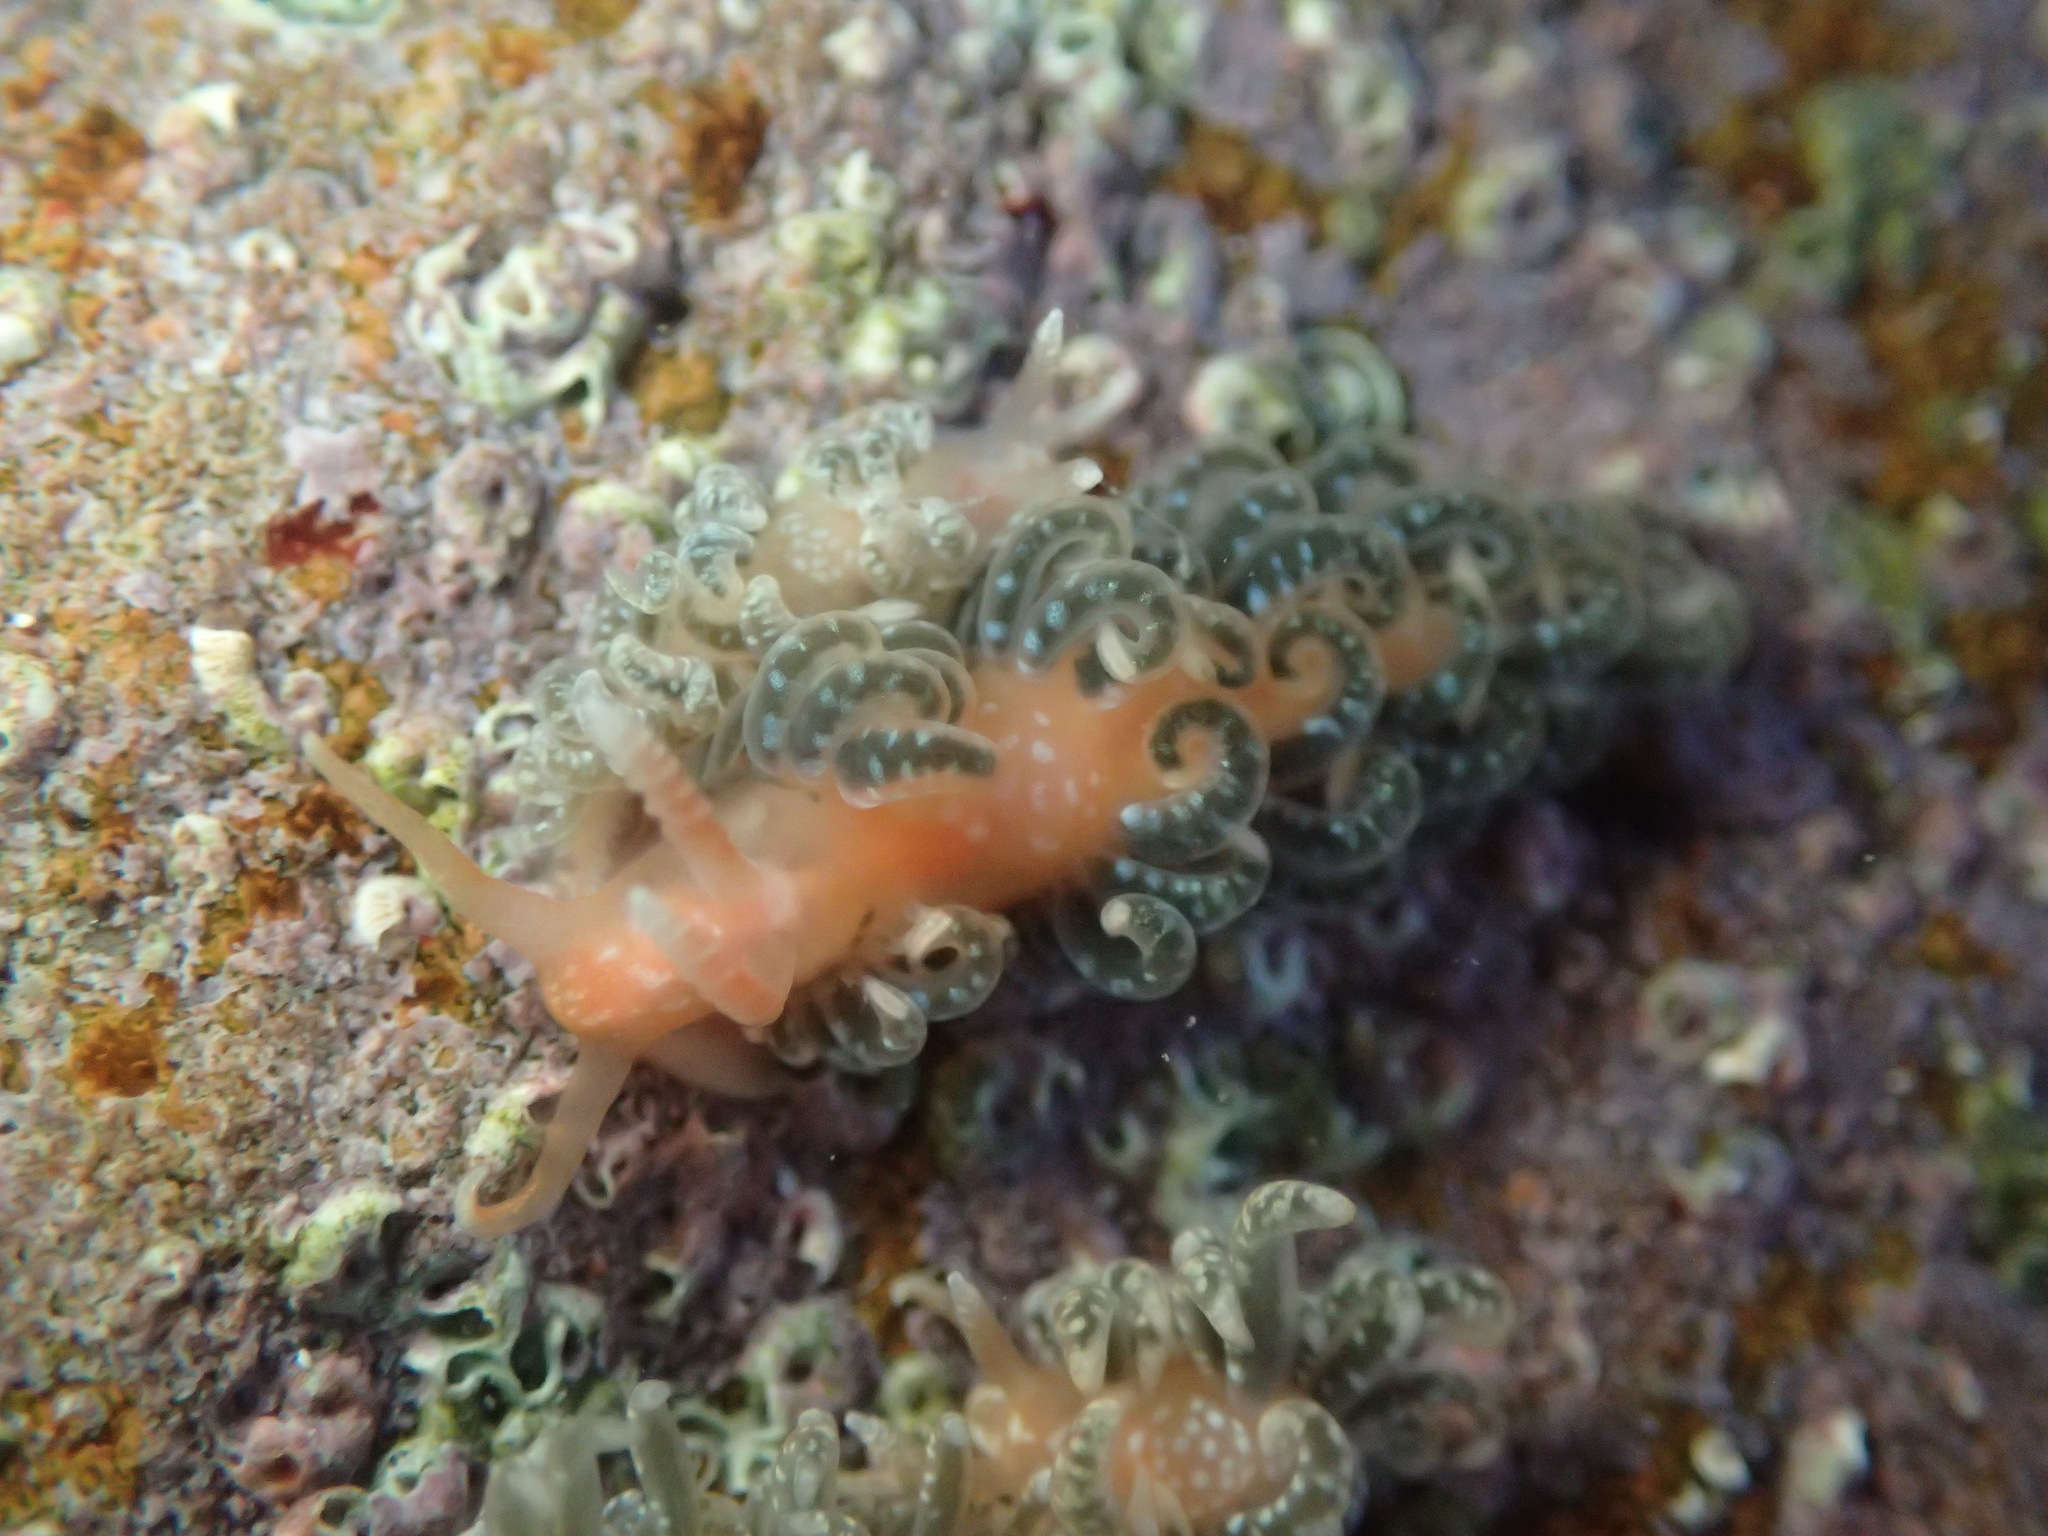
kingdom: Animalia
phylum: Mollusca
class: Gastropoda
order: Nudibranchia
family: Aeolidiidae
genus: Spurilla
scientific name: Spurilla braziliana
